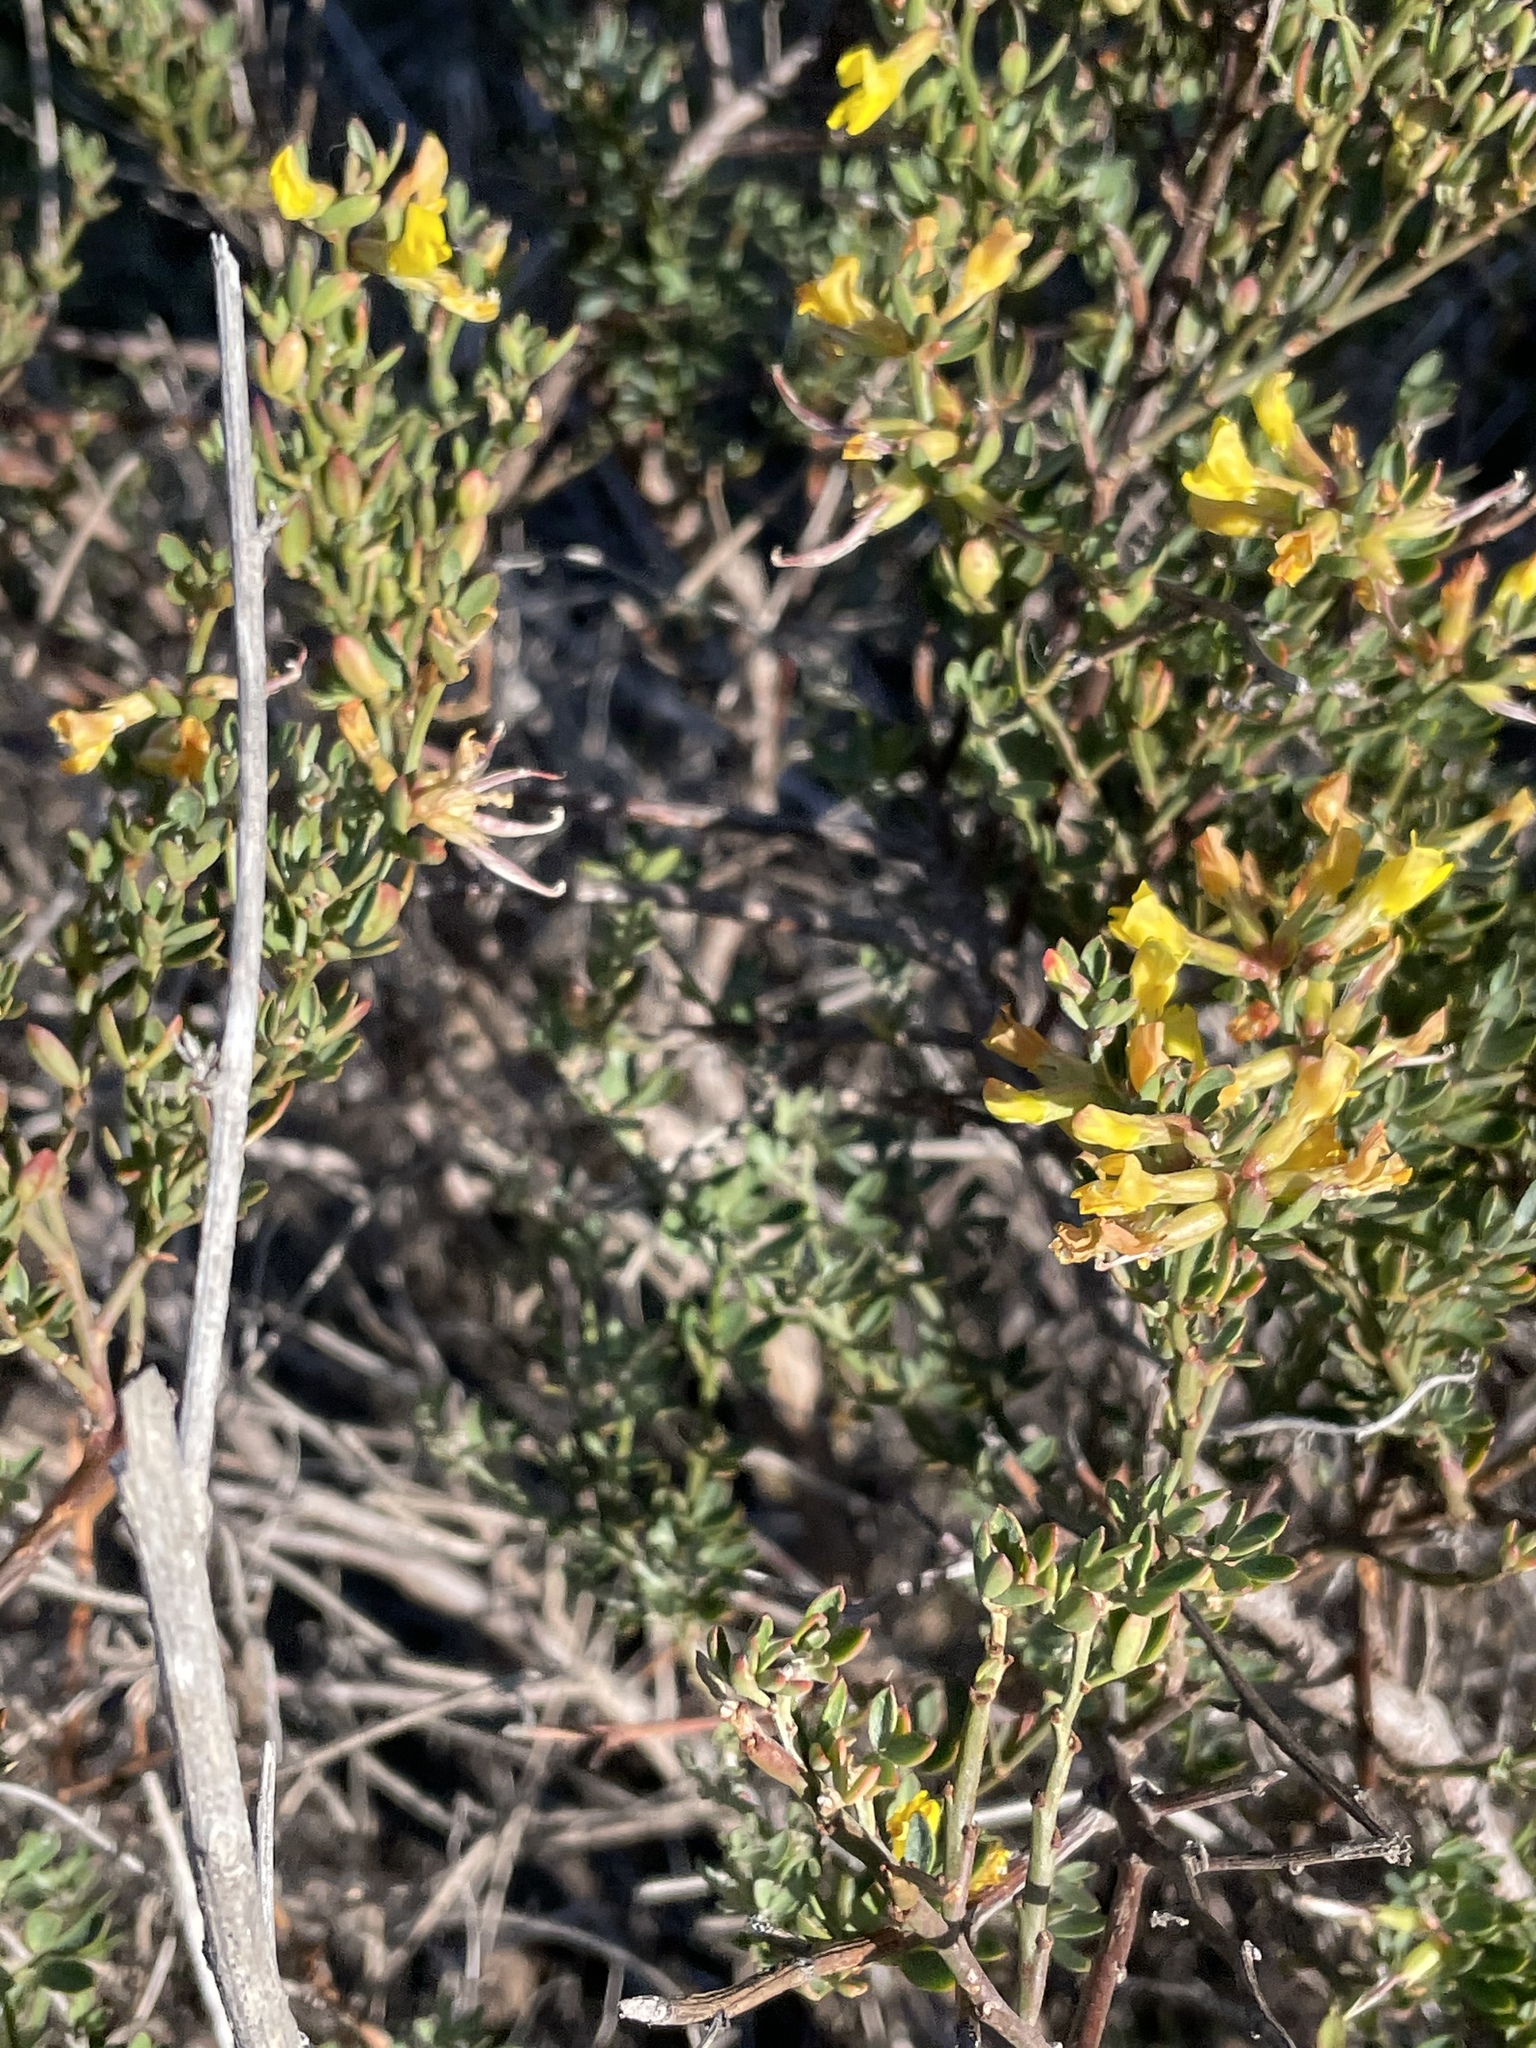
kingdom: Plantae
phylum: Tracheophyta
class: Magnoliopsida
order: Fabales
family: Fabaceae
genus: Acmispon
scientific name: Acmispon dendroideus
